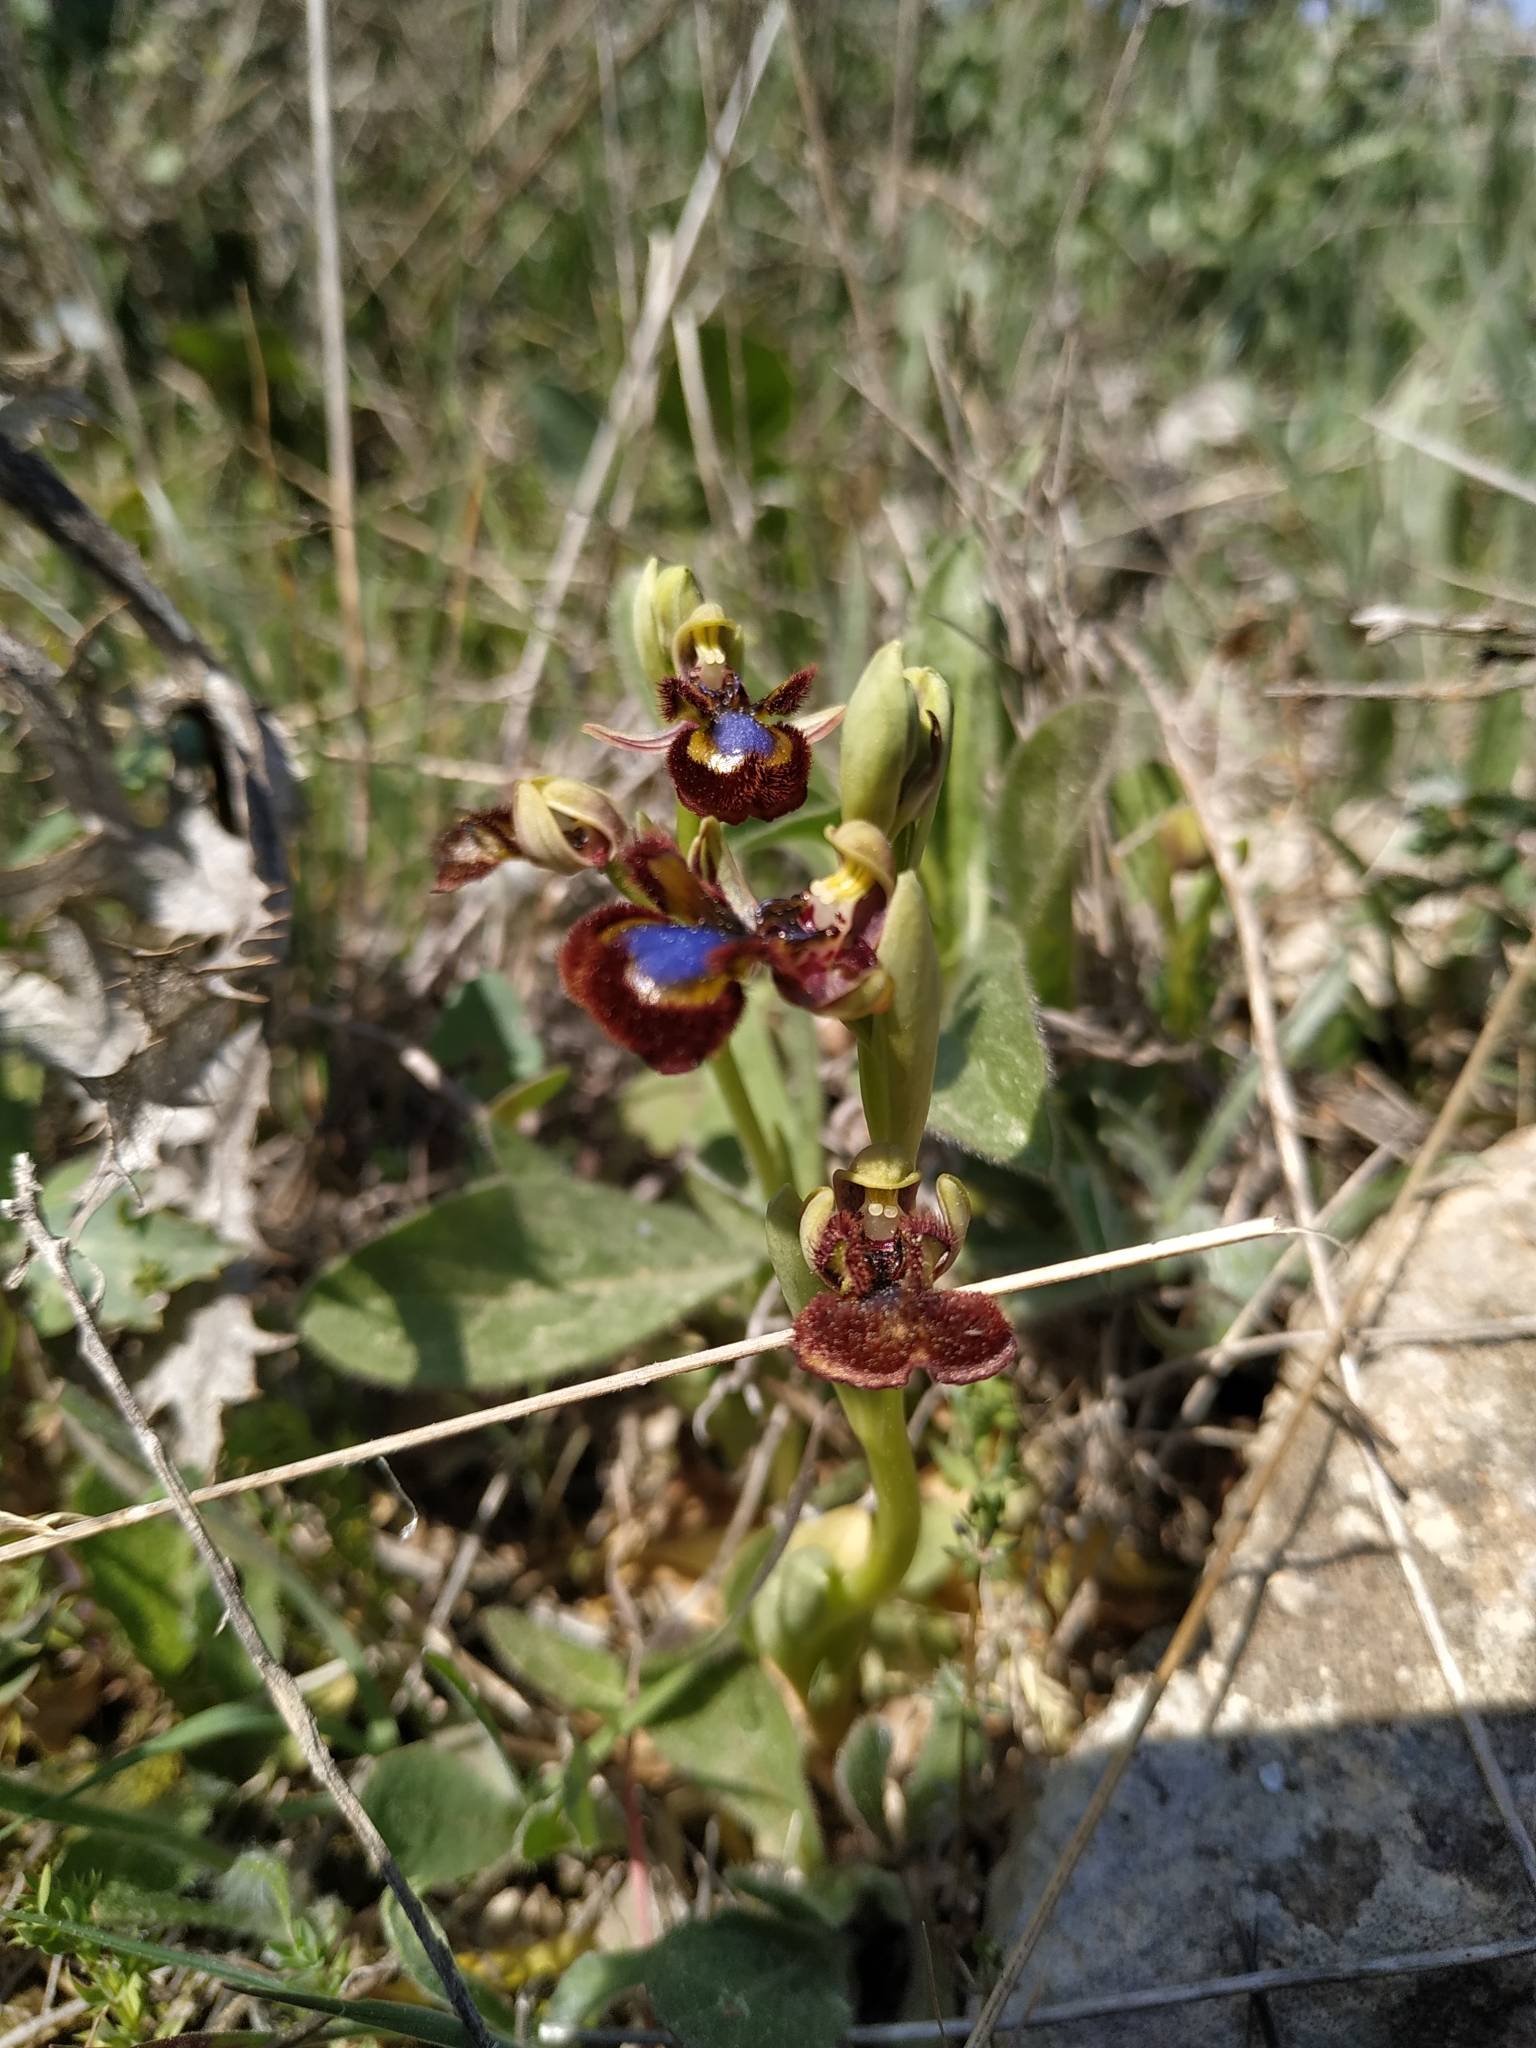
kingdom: Plantae
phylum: Tracheophyta
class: Liliopsida
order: Asparagales
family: Orchidaceae
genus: Ophrys
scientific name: Ophrys speculum
